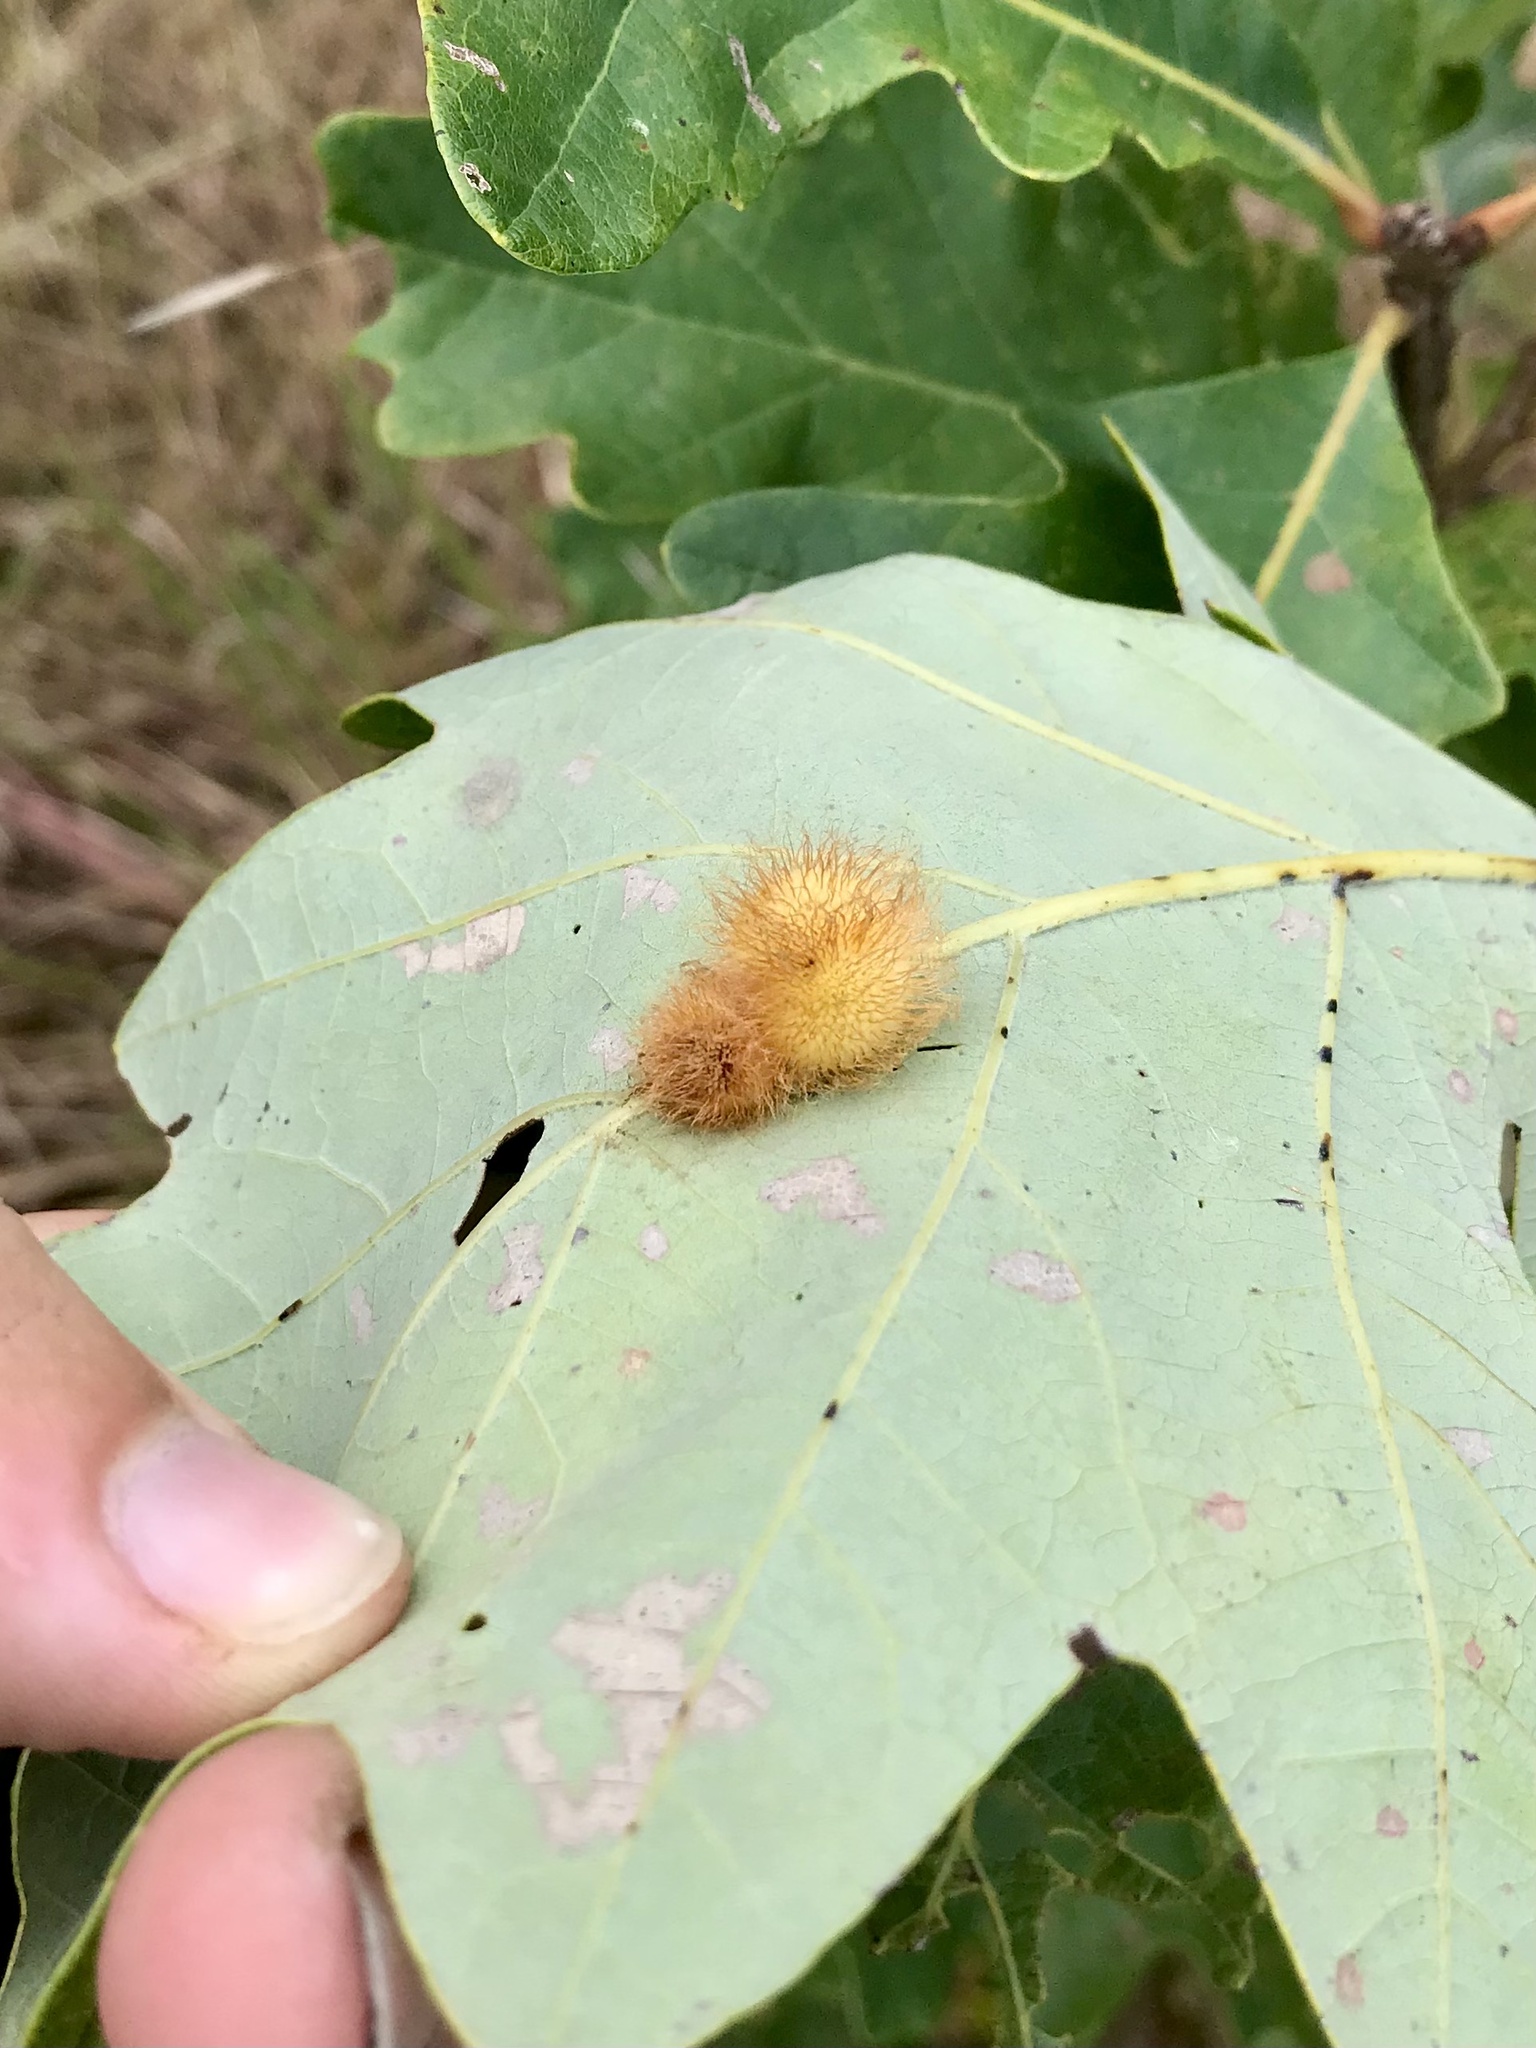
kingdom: Animalia
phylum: Arthropoda
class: Insecta
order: Hymenoptera
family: Cynipidae
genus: Acraspis
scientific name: Acraspis villosa
